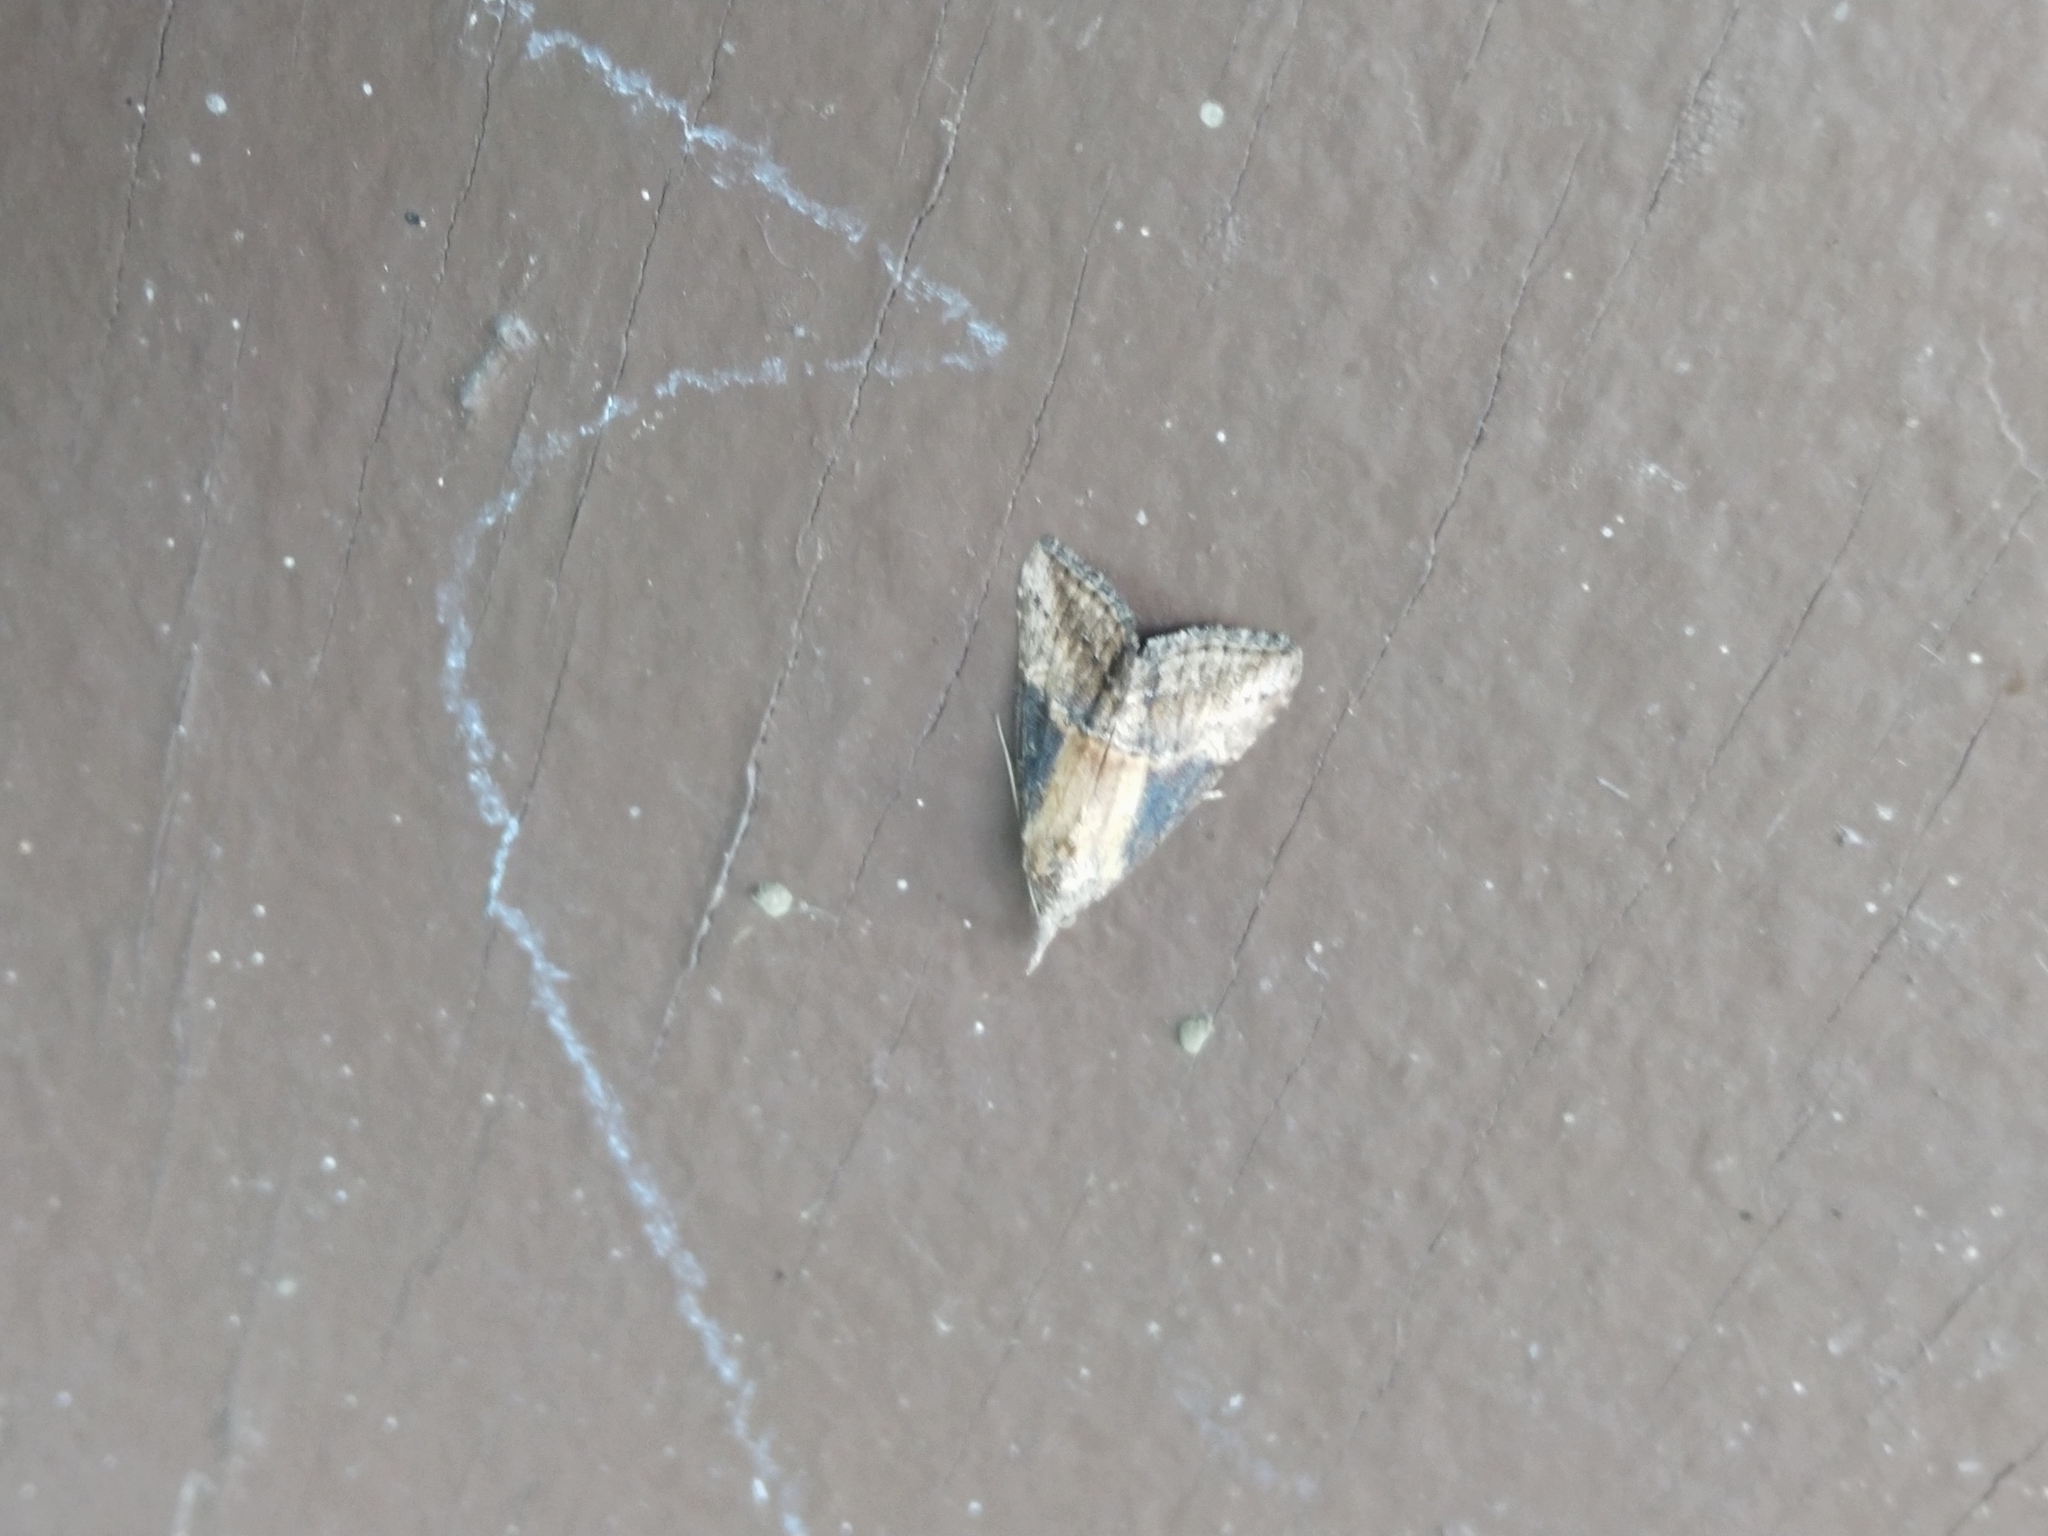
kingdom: Animalia
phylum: Arthropoda
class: Insecta
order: Lepidoptera
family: Erebidae
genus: Hypena
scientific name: Hypena scabra
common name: Green cloverworm
